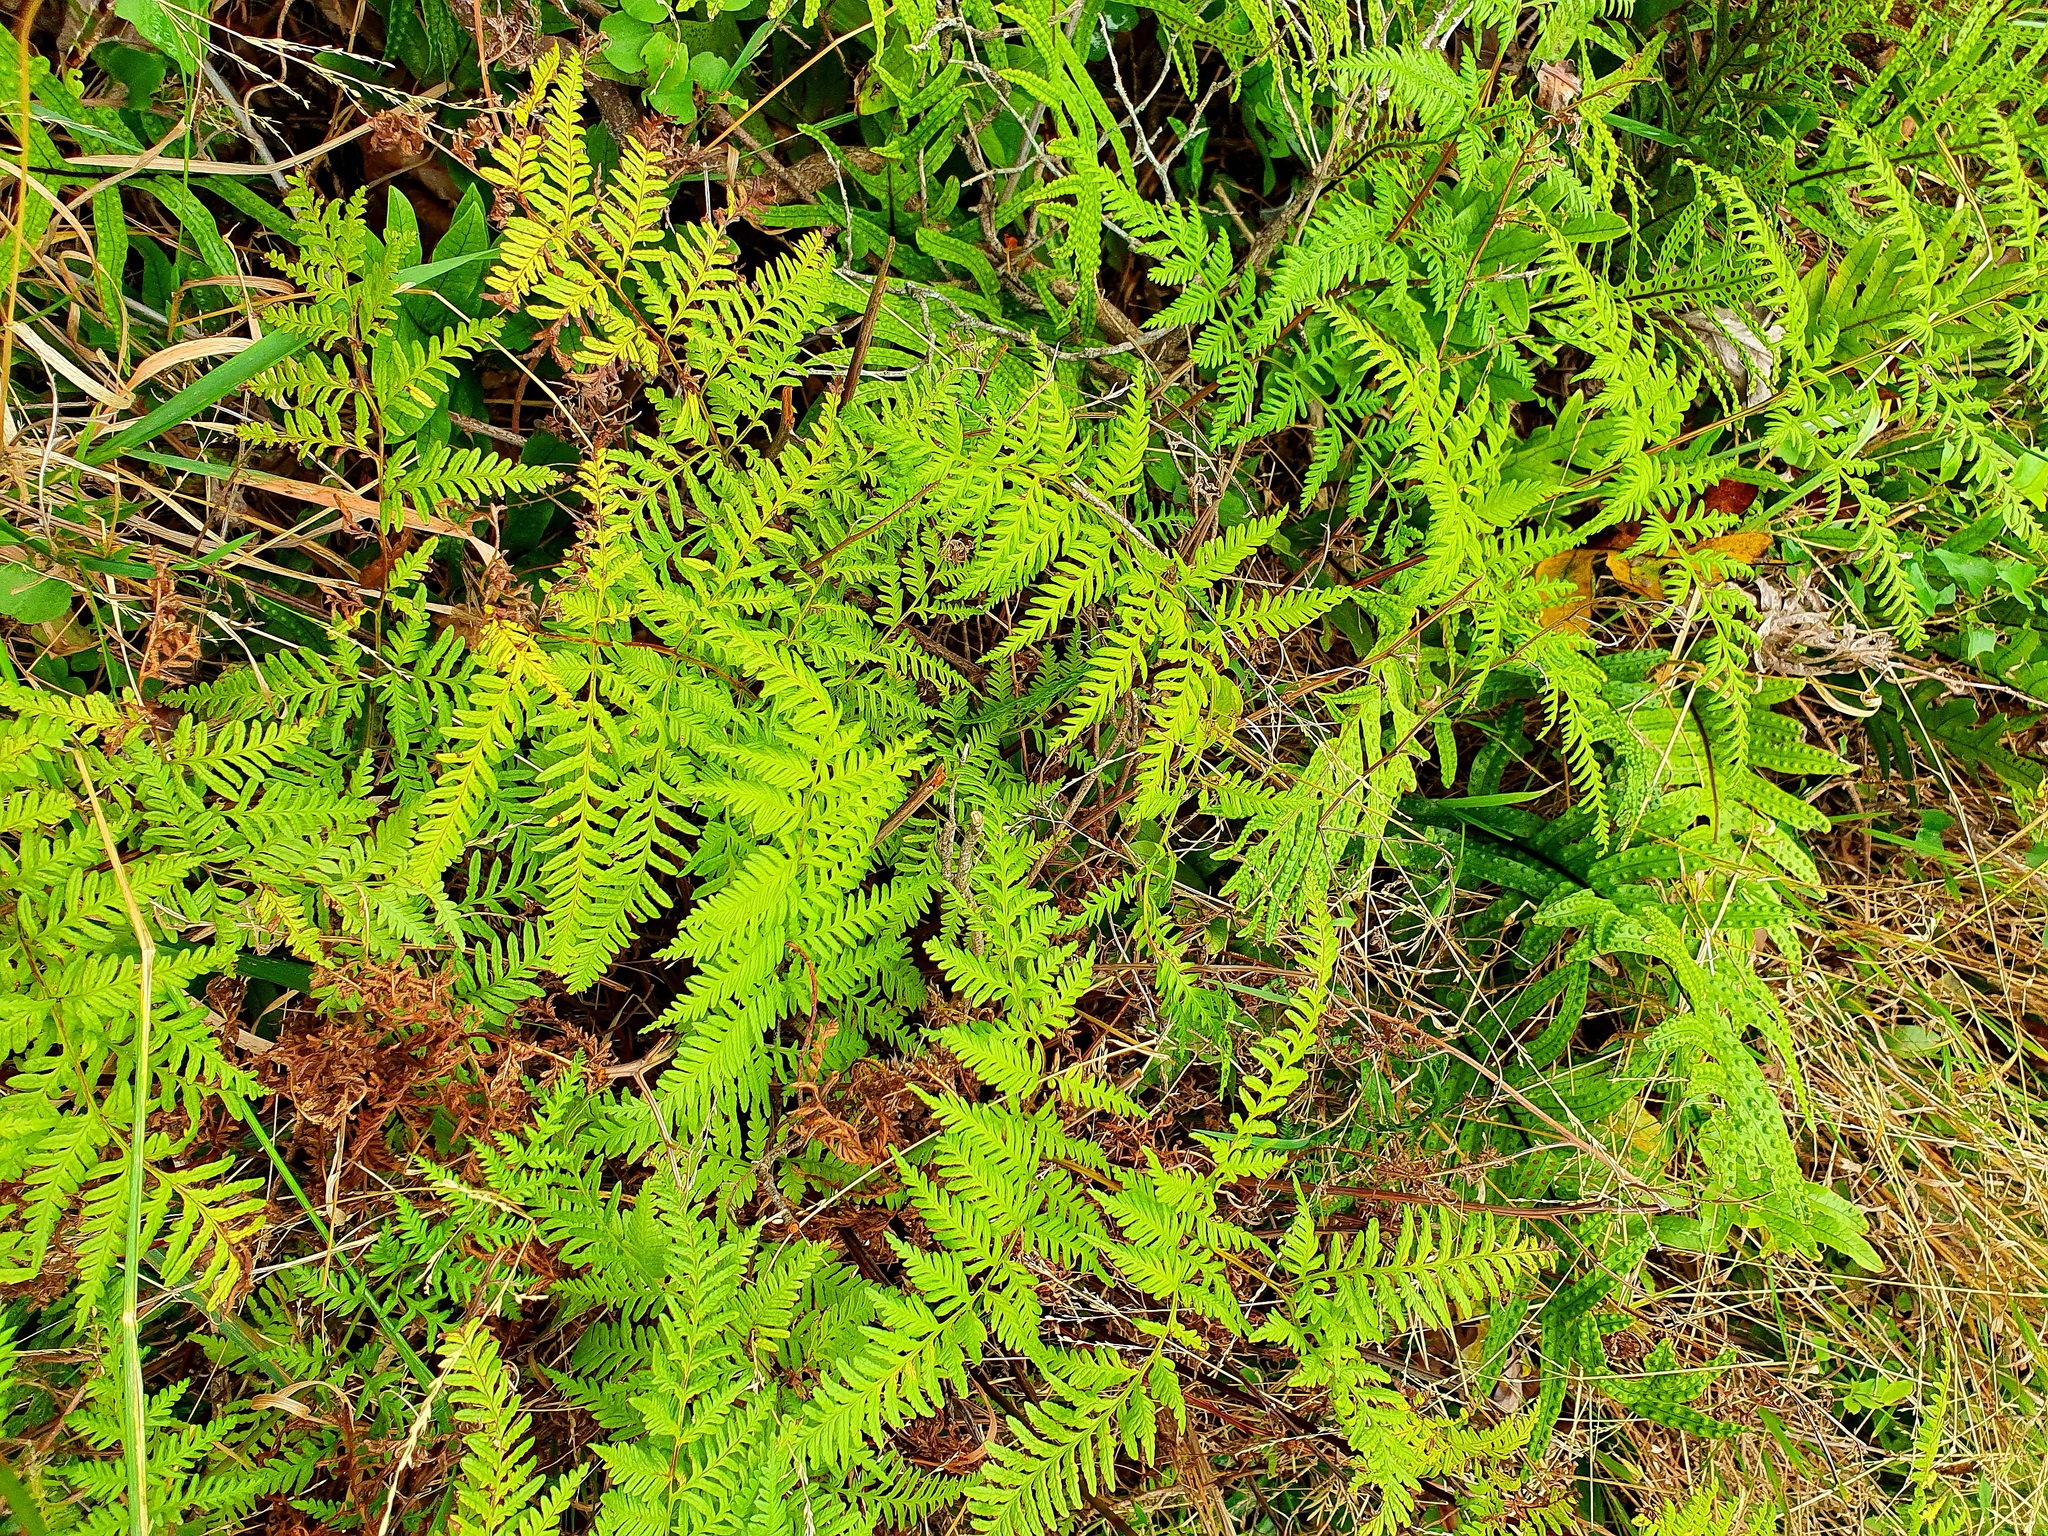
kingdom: Plantae
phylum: Tracheophyta
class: Polypodiopsida
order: Polypodiales
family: Pteridaceae
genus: Pteris
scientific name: Pteris tremula
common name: Australian brake
